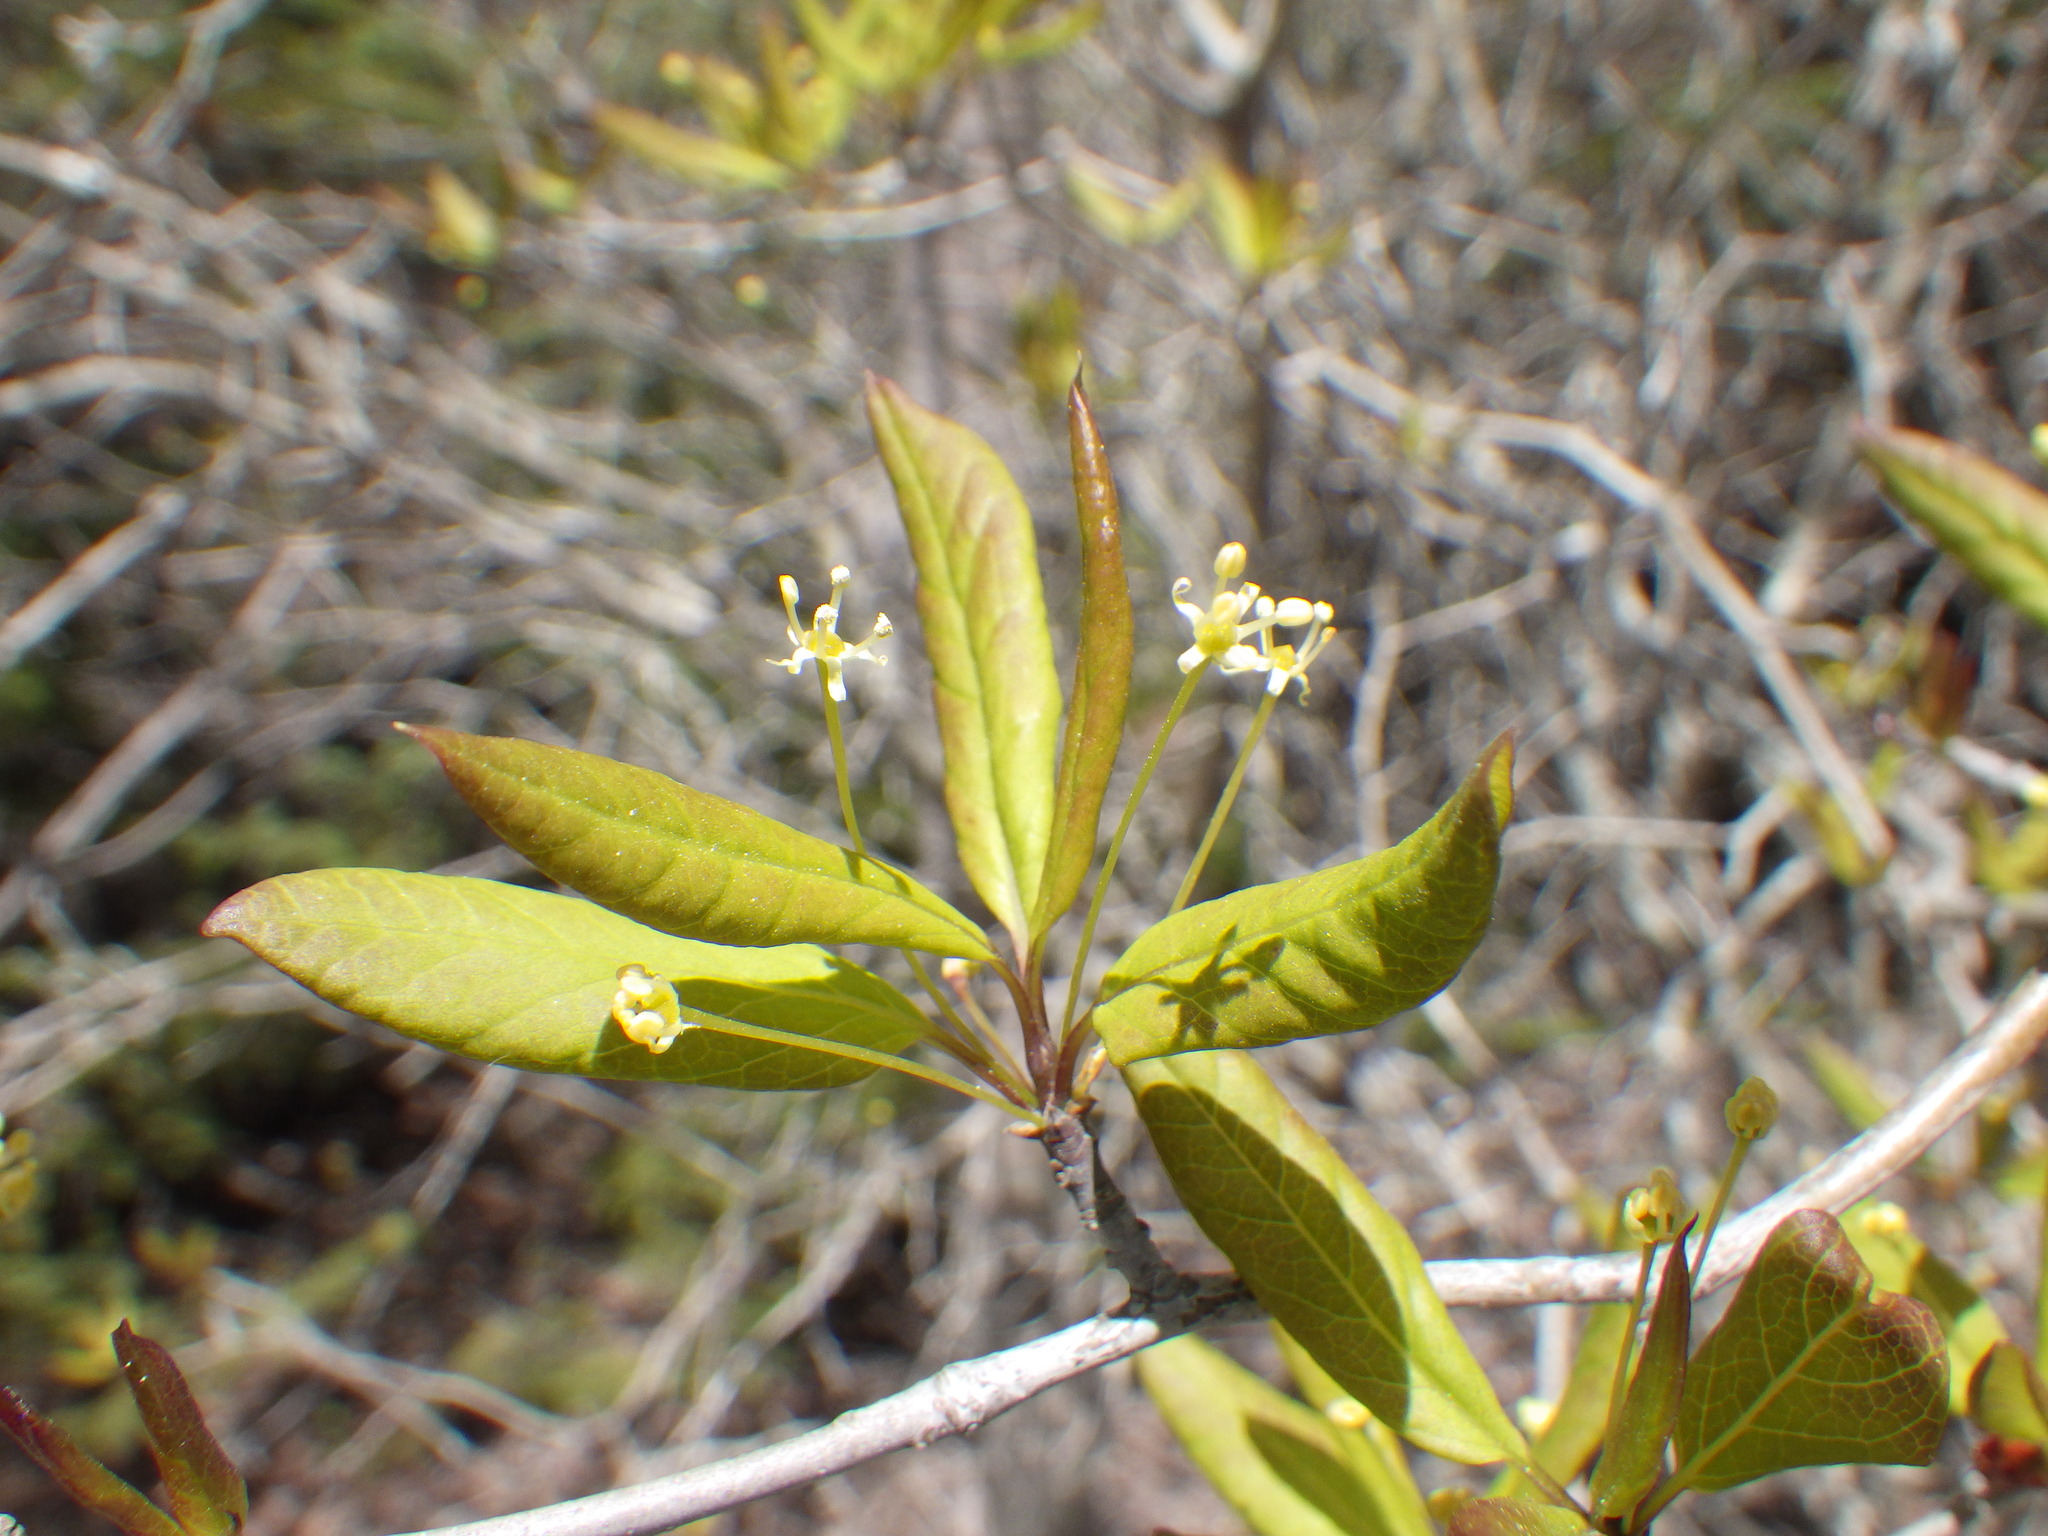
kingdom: Plantae
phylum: Tracheophyta
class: Magnoliopsida
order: Aquifoliales
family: Aquifoliaceae
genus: Ilex
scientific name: Ilex mucronata
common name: Catberry
